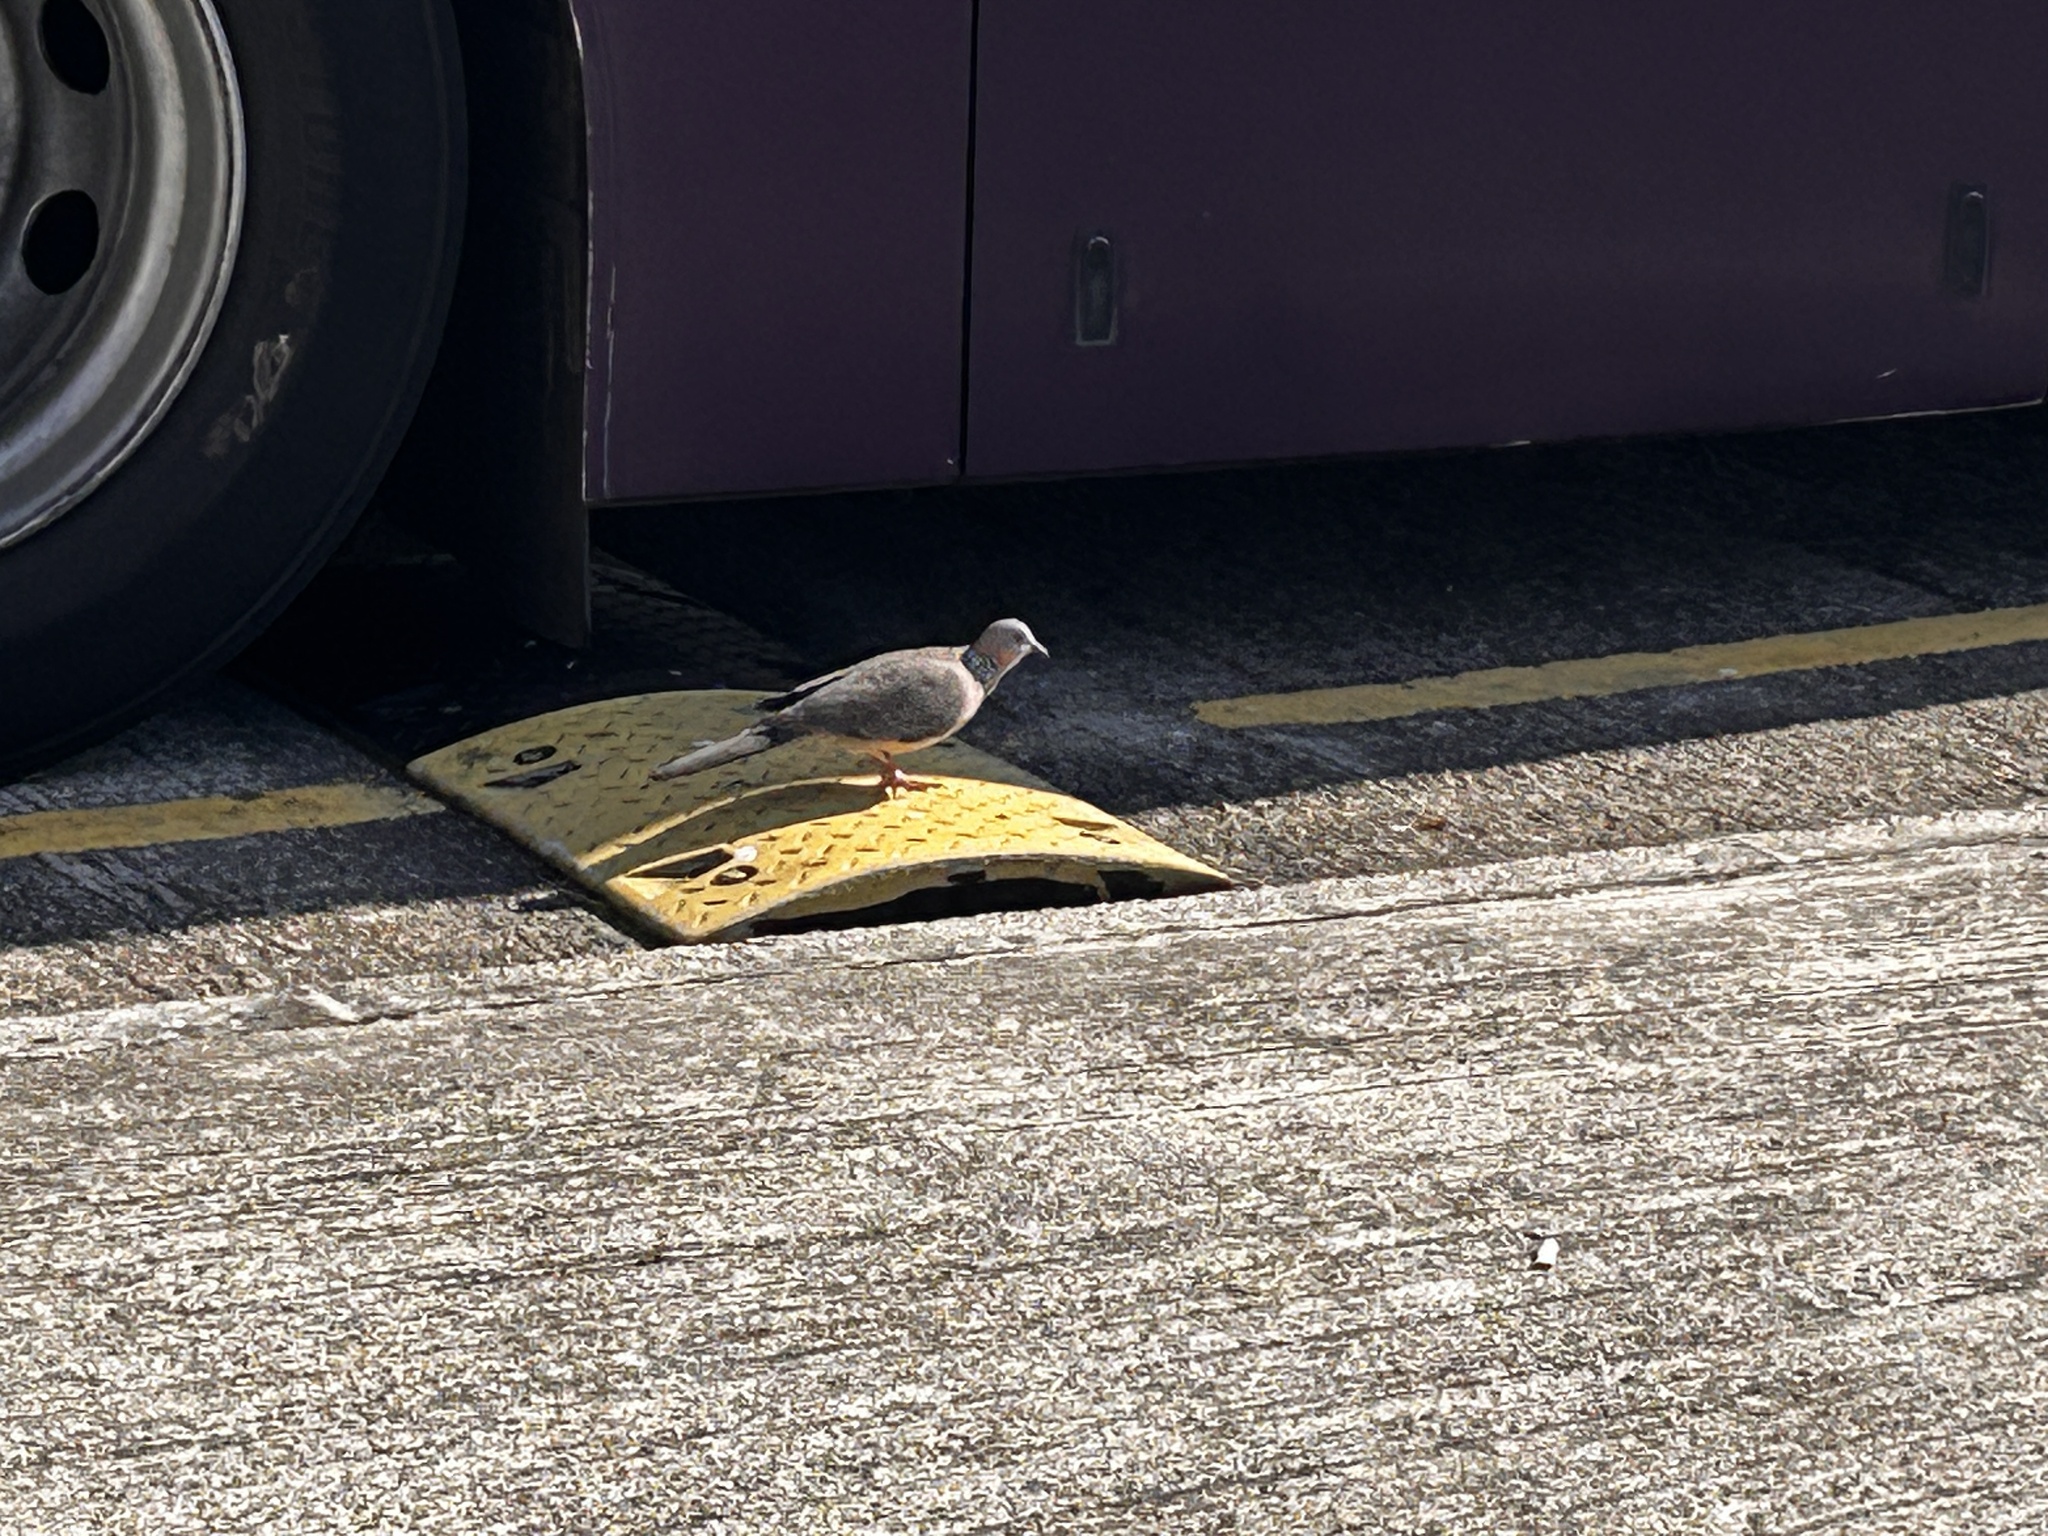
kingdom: Animalia
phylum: Chordata
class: Aves
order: Columbiformes
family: Columbidae
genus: Spilopelia
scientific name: Spilopelia chinensis
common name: Spotted dove
